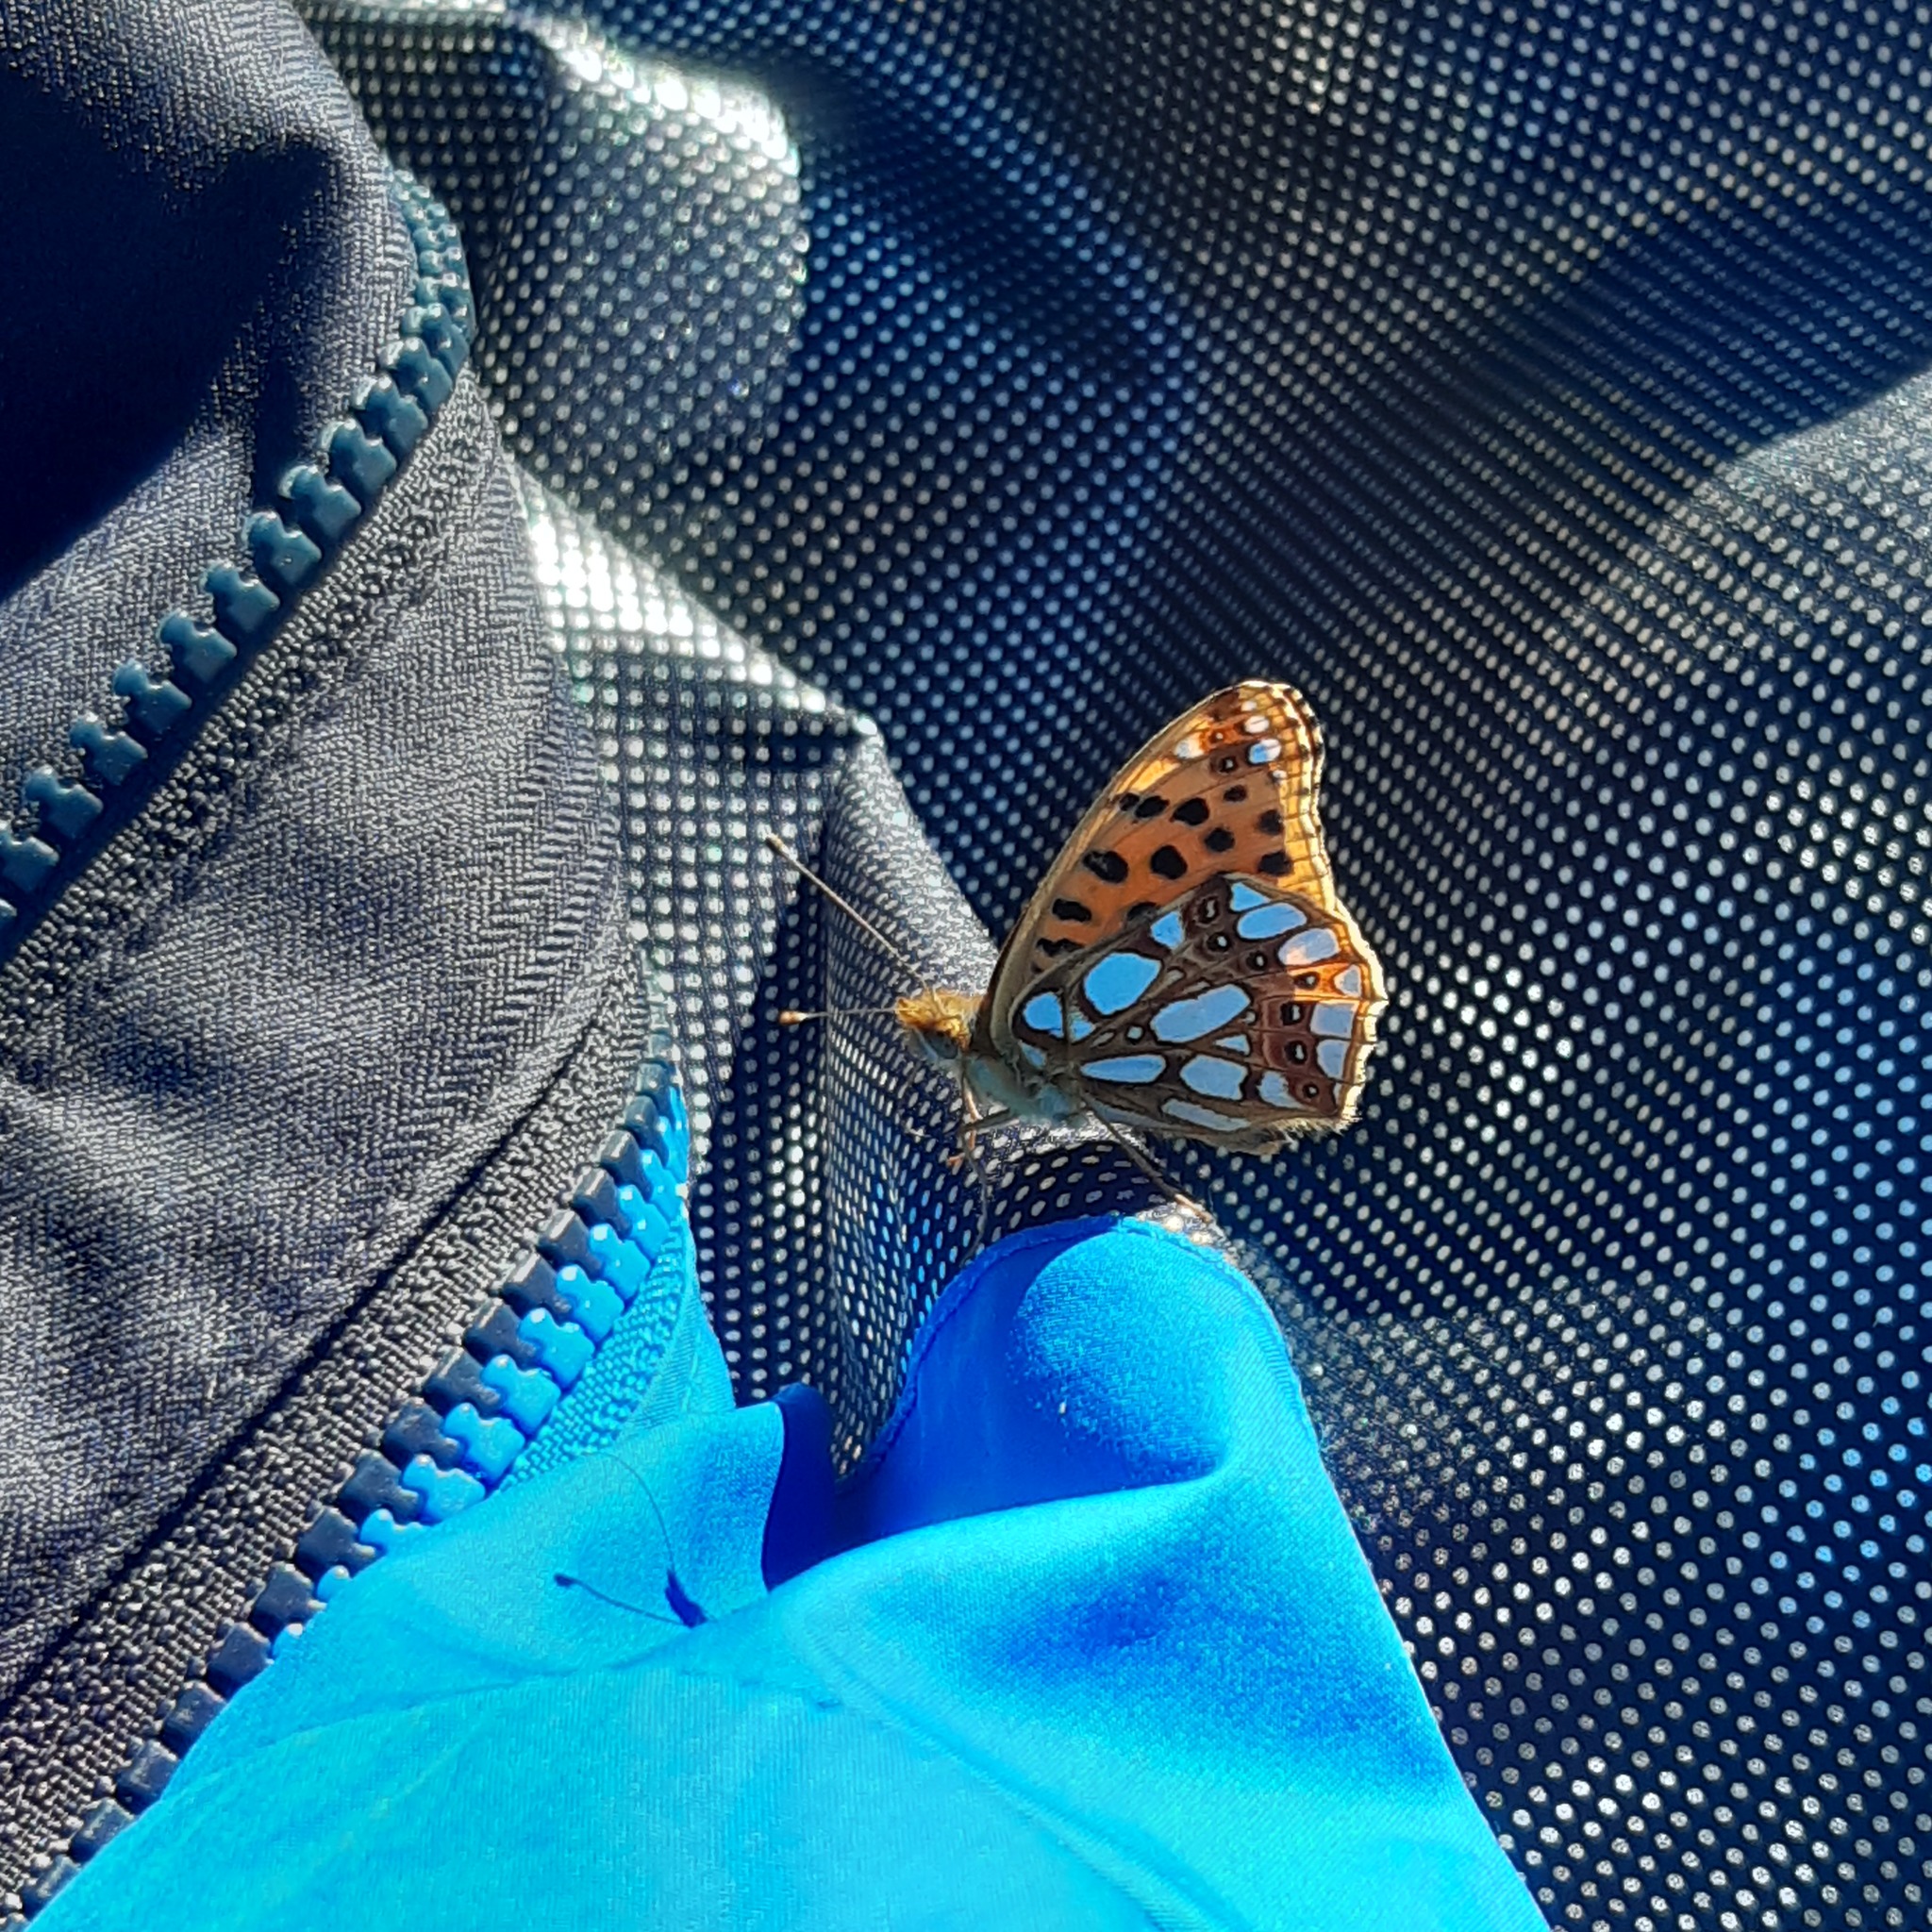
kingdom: Animalia
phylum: Arthropoda
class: Insecta
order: Lepidoptera
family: Nymphalidae
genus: Issoria
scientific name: Issoria lathonia
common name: Queen of spain fritillary
